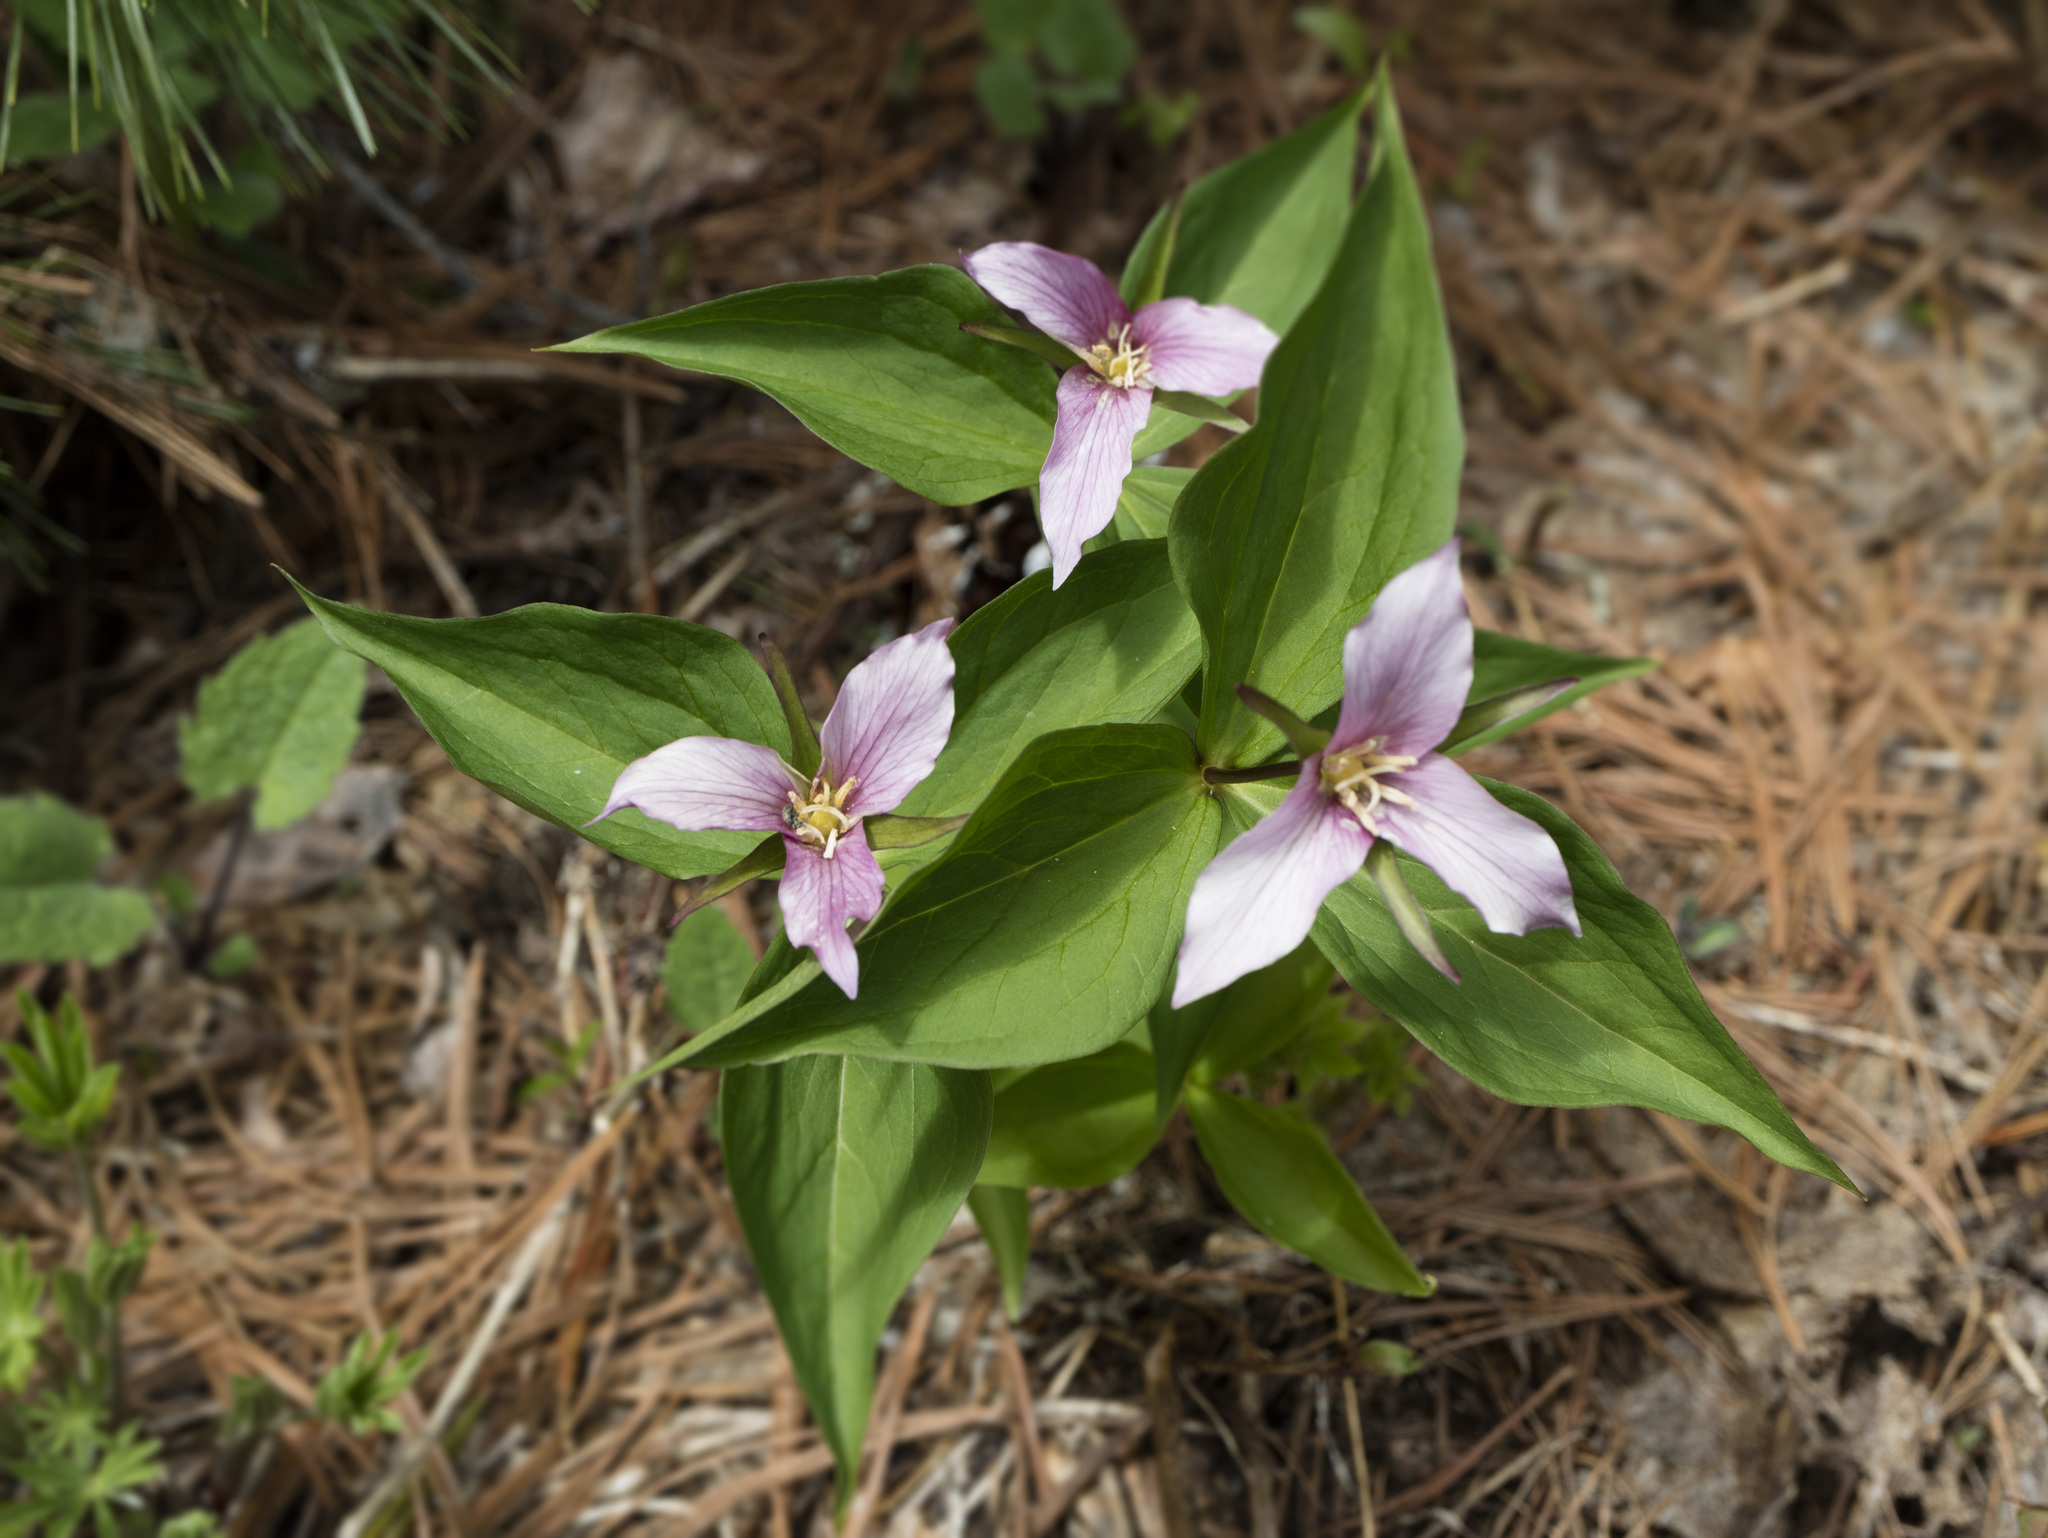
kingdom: Plantae
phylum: Tracheophyta
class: Liliopsida
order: Liliales
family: Melanthiaceae
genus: Trillium
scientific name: Trillium ovatum
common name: Pacific trillium
